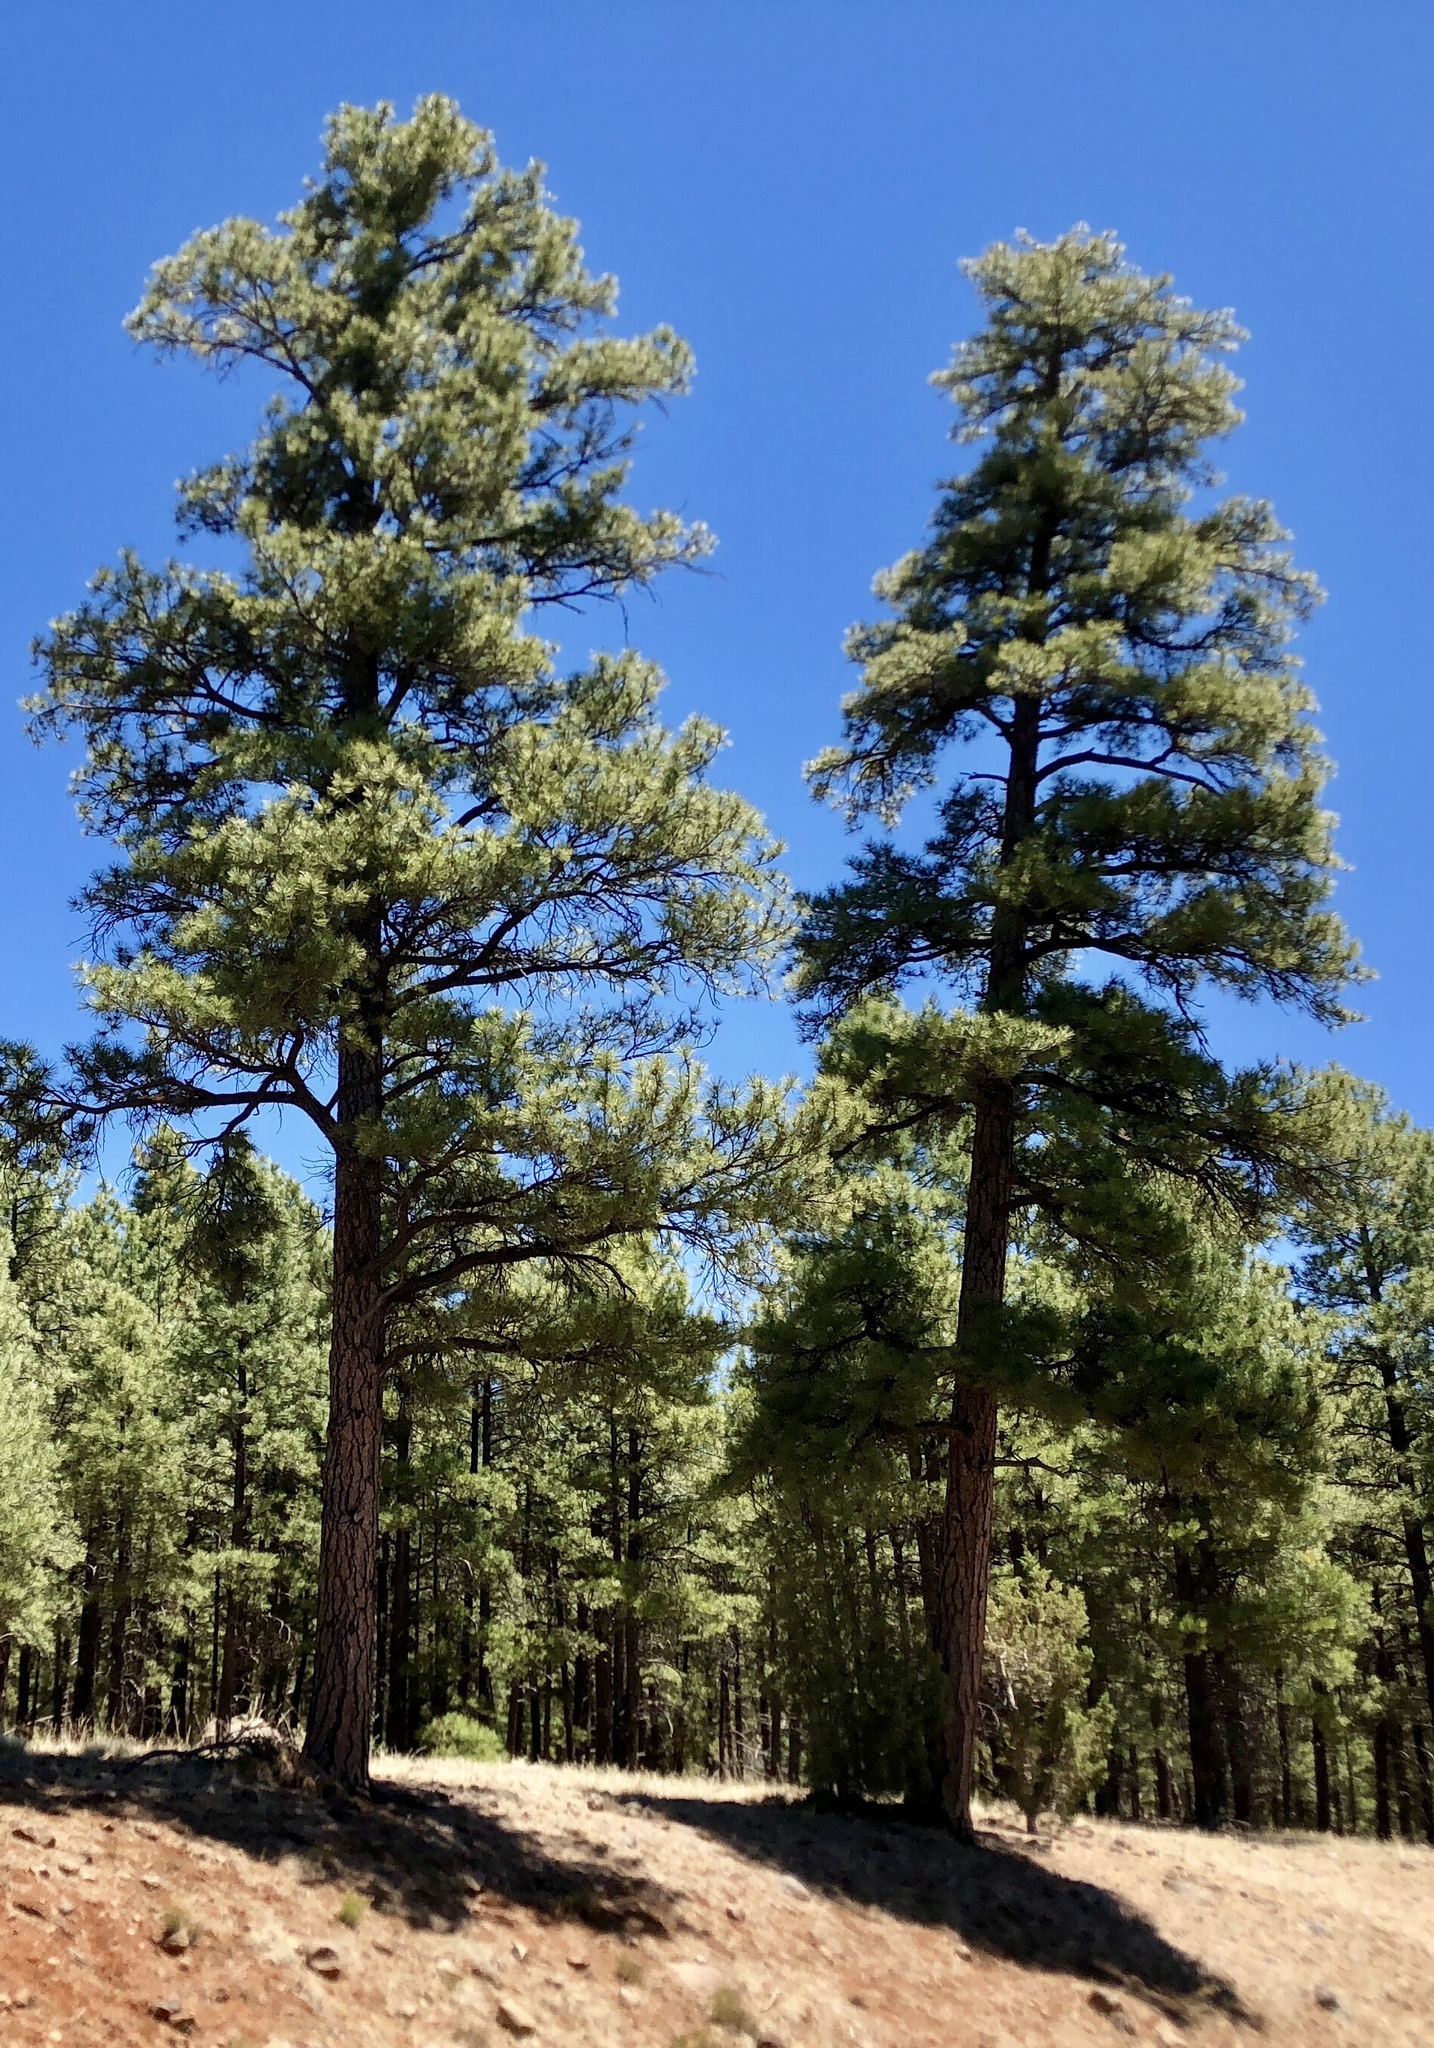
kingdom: Plantae
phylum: Tracheophyta
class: Pinopsida
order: Pinales
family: Pinaceae
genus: Pinus
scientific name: Pinus ponderosa
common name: Western yellow-pine
